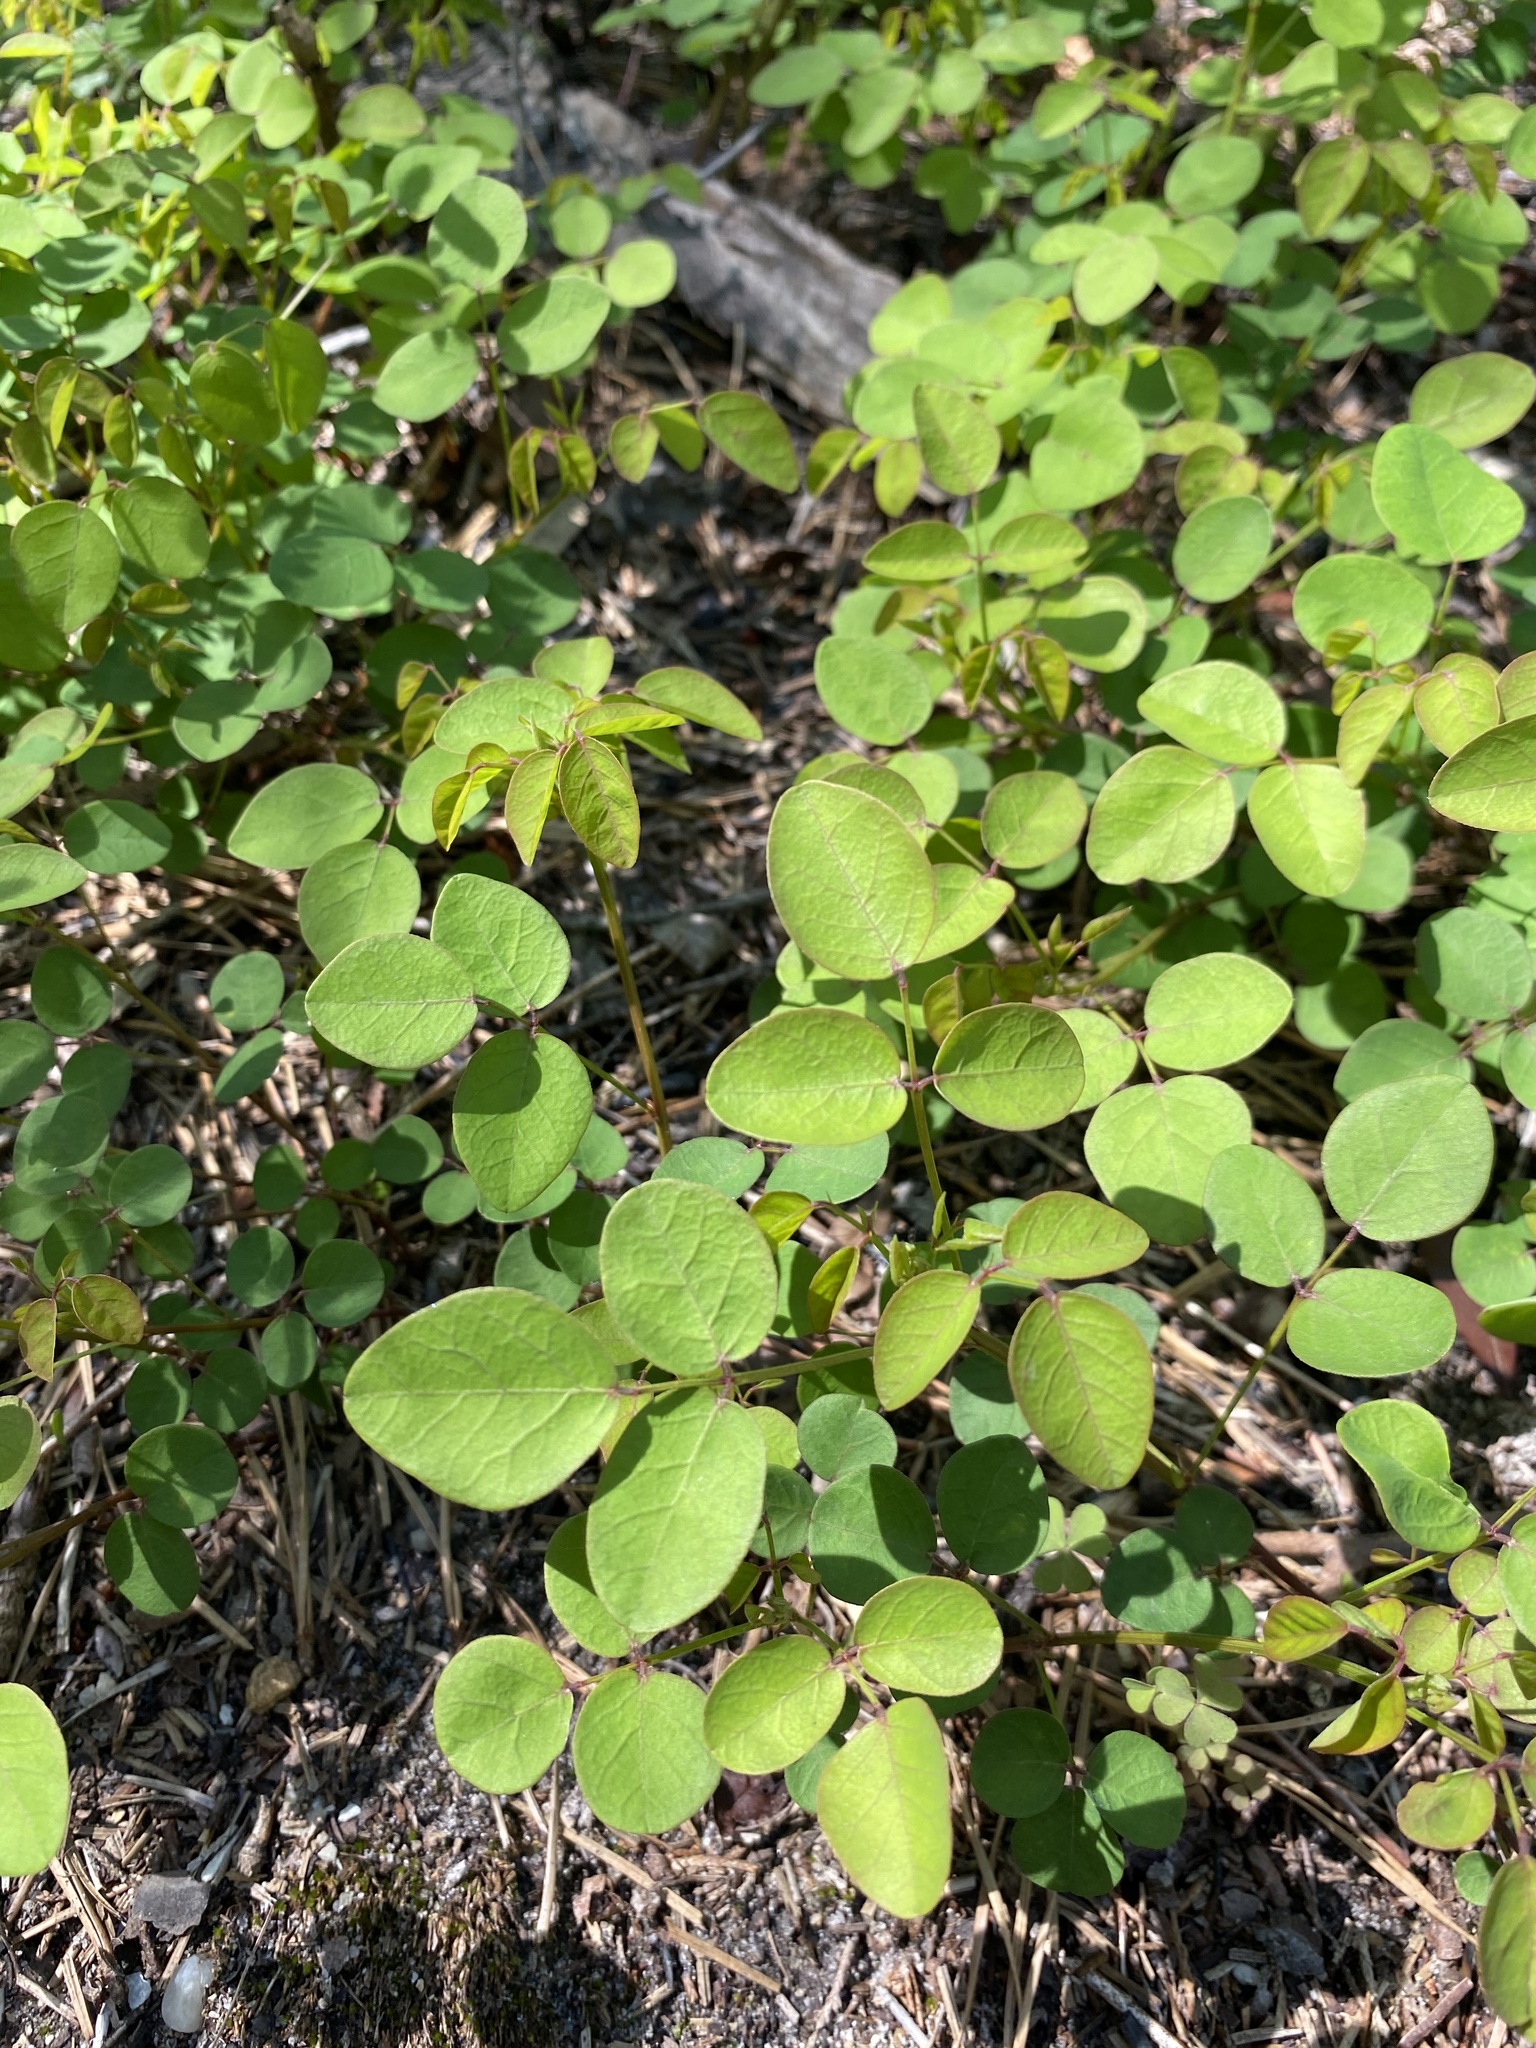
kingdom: Plantae
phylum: Tracheophyta
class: Magnoliopsida
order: Fabales
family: Fabaceae
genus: Desmodium
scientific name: Desmodium marilandicum
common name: Maryland tick-trefoil
